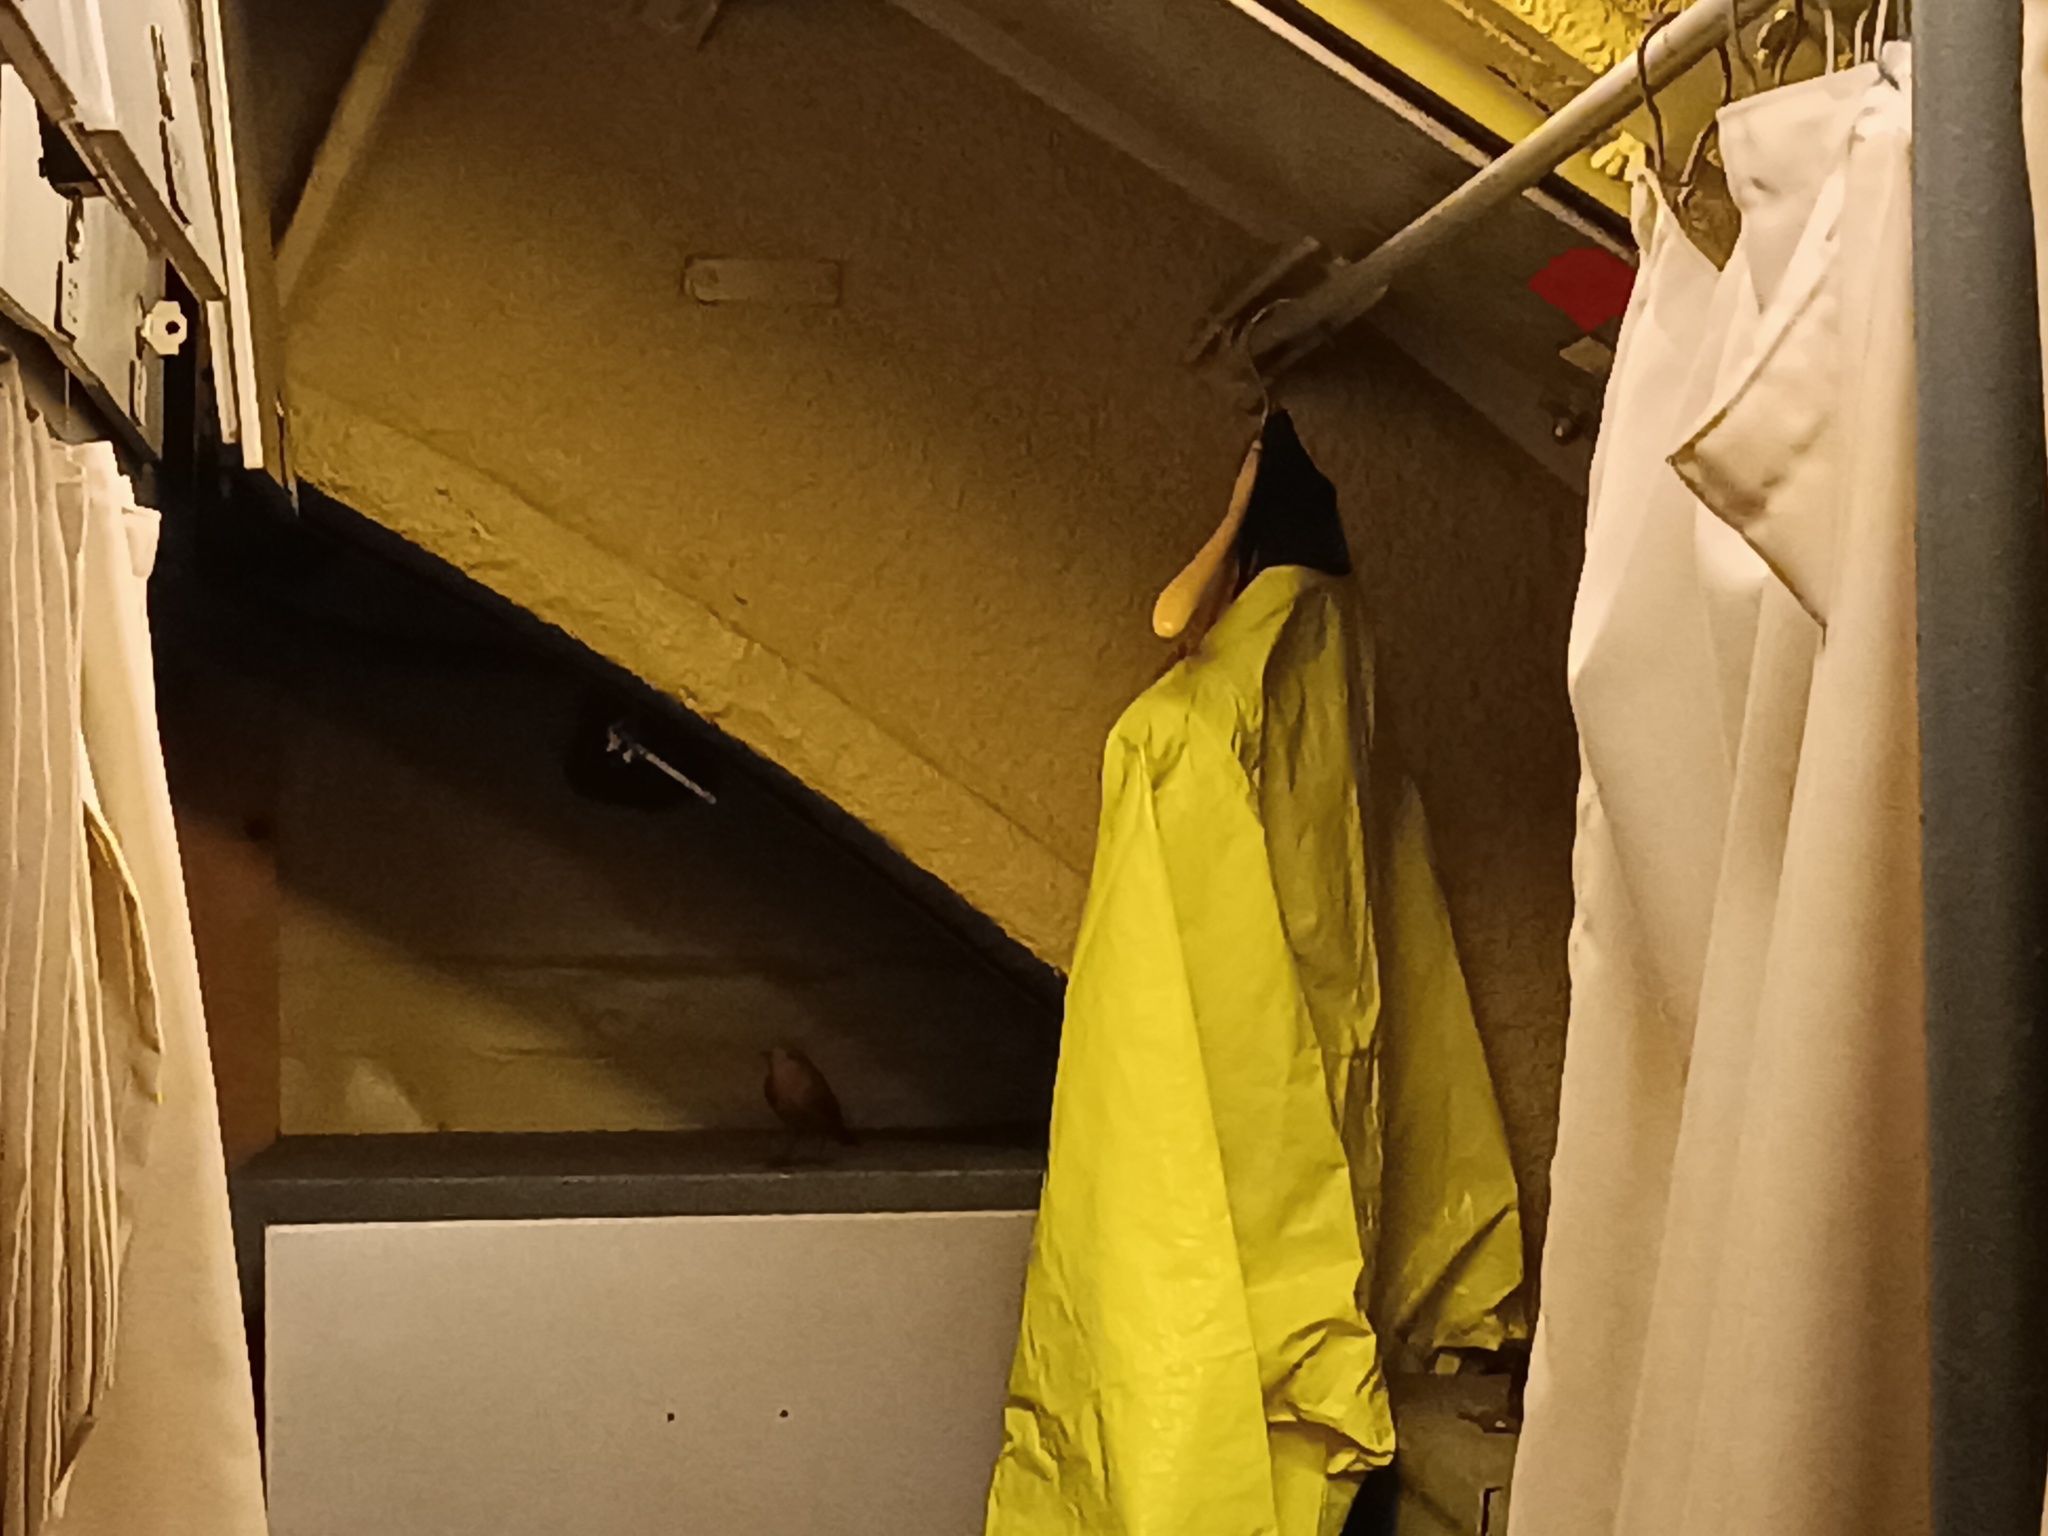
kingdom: Animalia
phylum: Chordata
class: Aves
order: Passeriformes
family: Muscicapidae
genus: Erithacus
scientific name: Erithacus rubecula
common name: European robin
